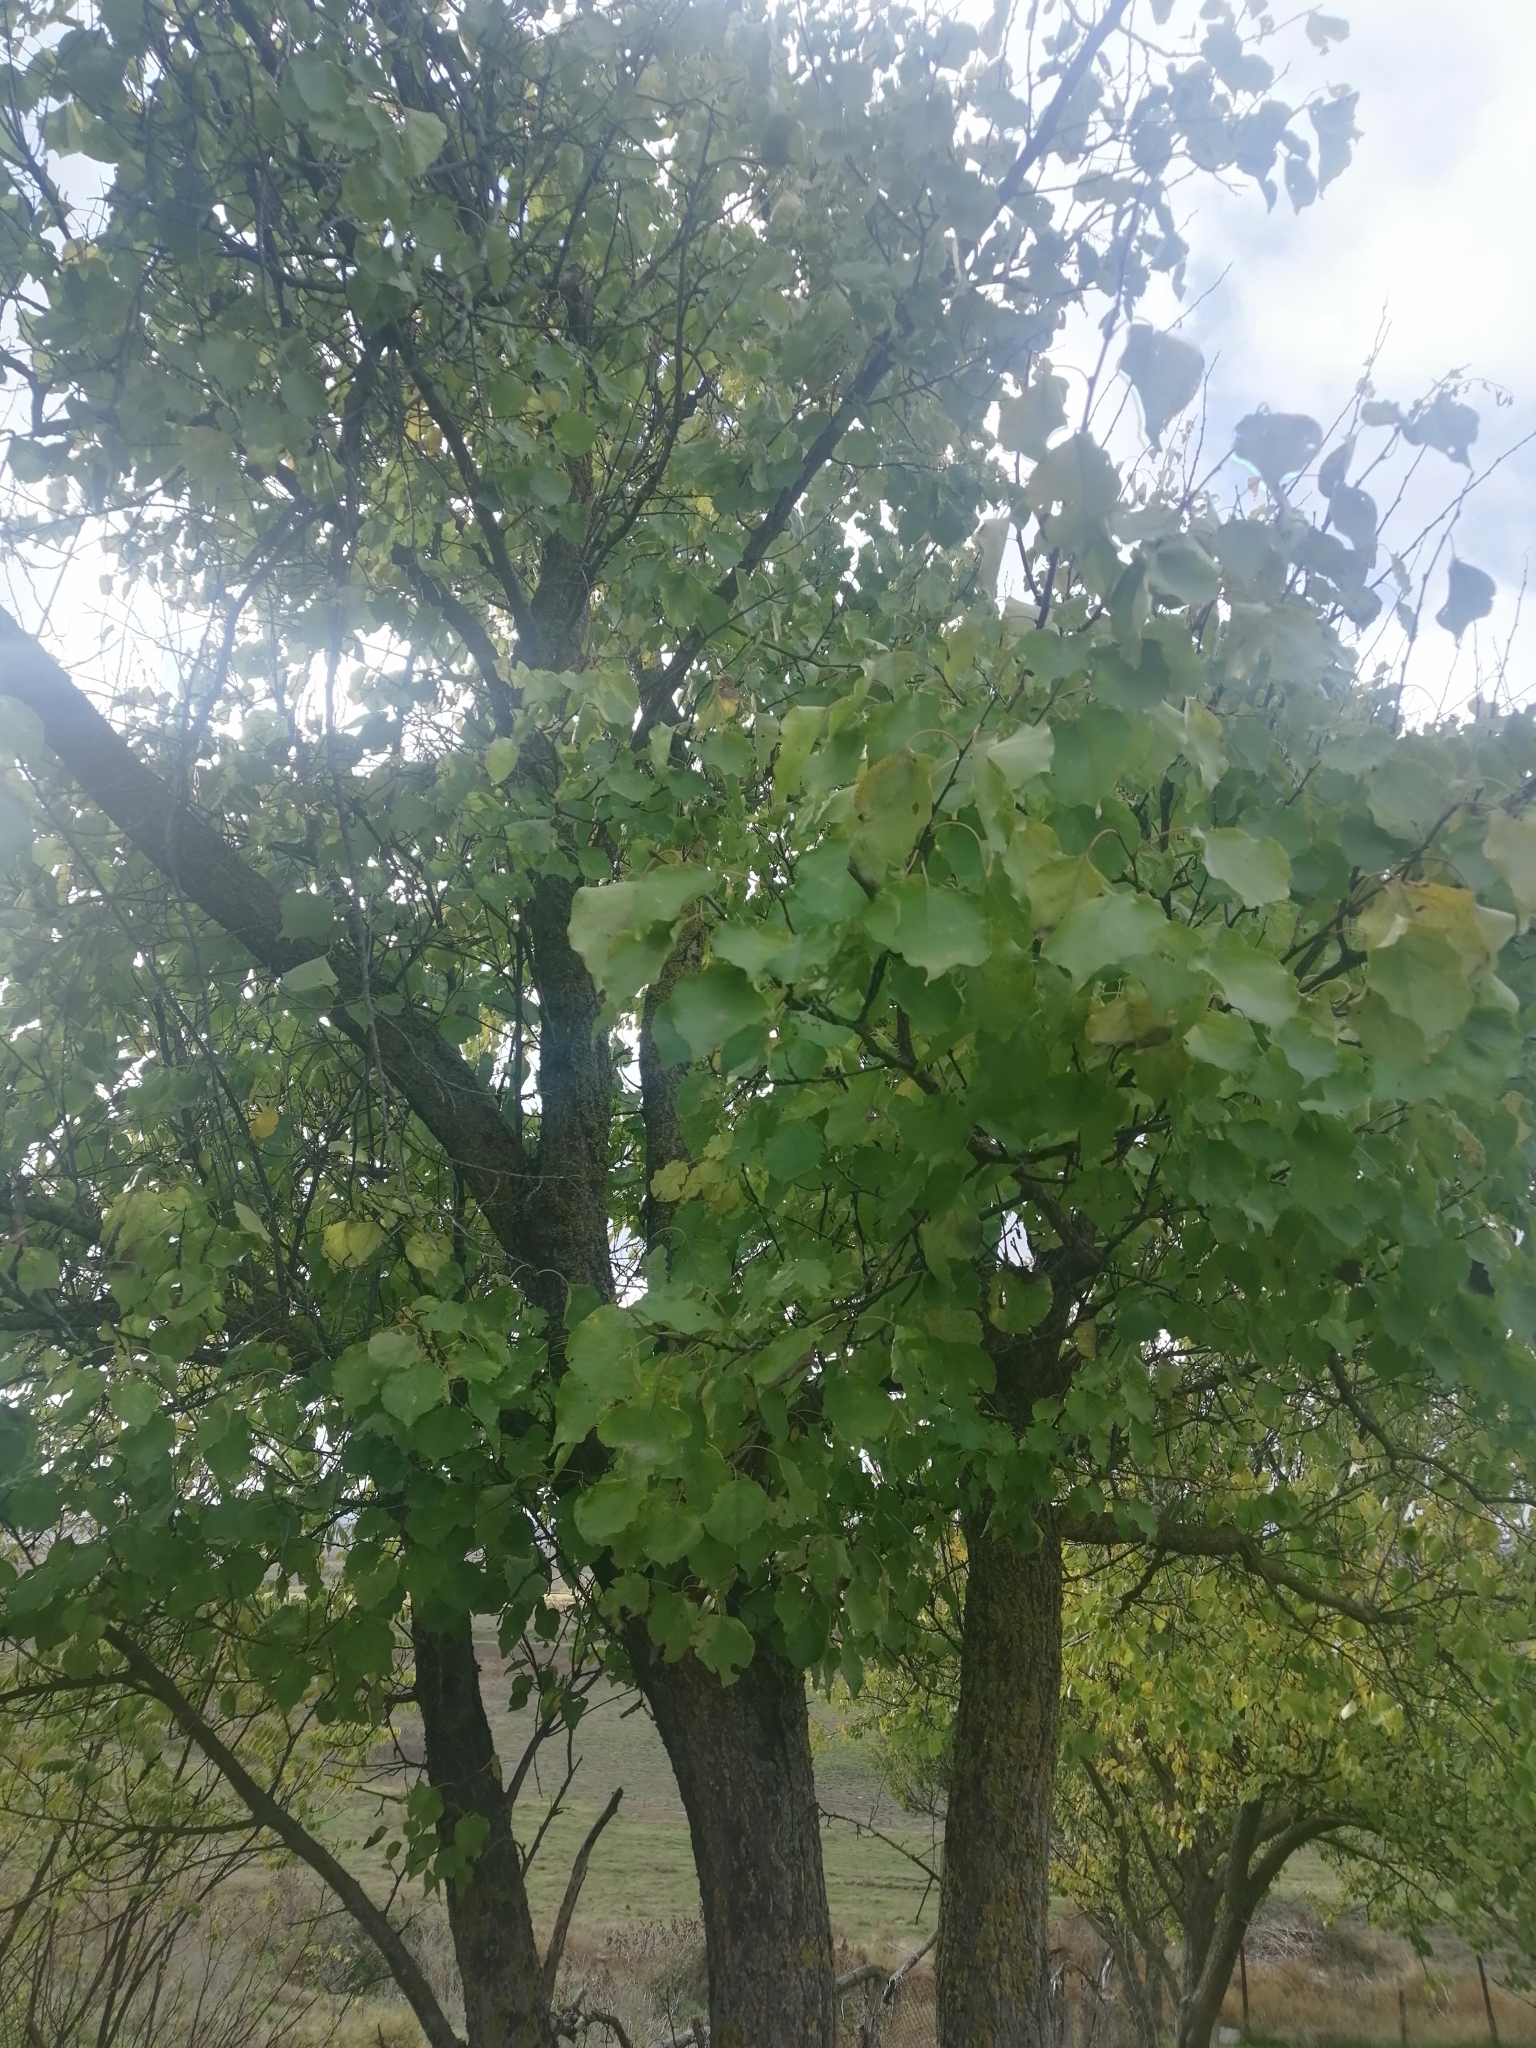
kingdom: Plantae
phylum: Tracheophyta
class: Magnoliopsida
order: Rosales
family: Rosaceae
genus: Prunus
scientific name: Prunus armeniaca
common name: Apricot
